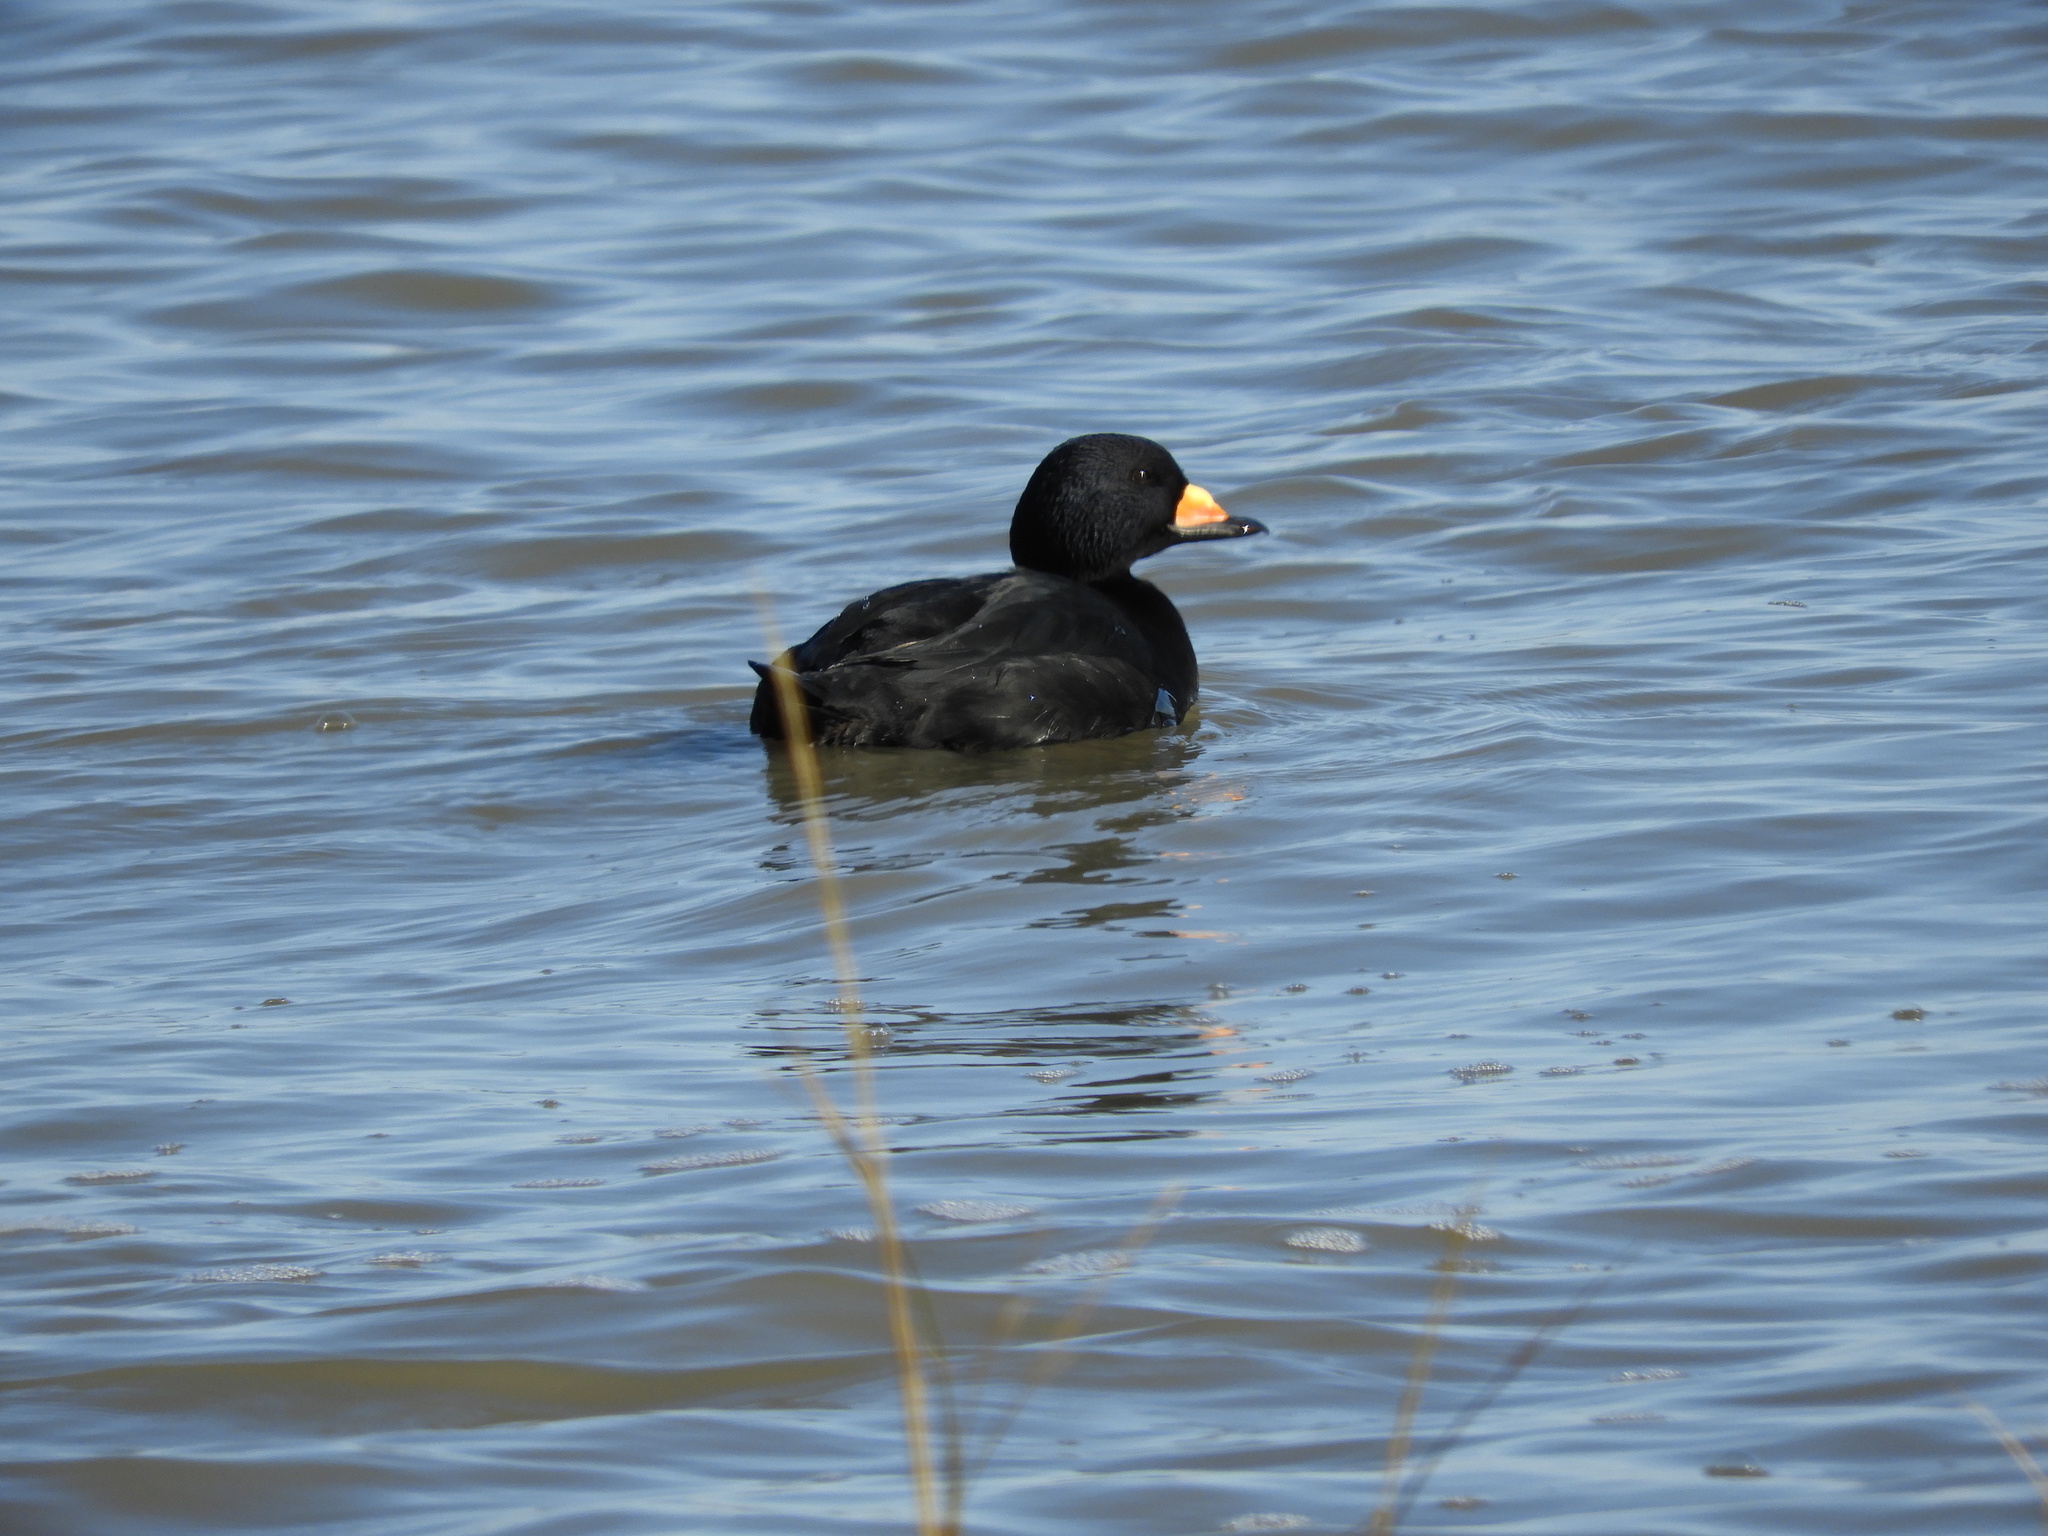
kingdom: Animalia
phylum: Chordata
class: Aves
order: Anseriformes
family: Anatidae
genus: Melanitta
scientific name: Melanitta americana
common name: Black scoter
